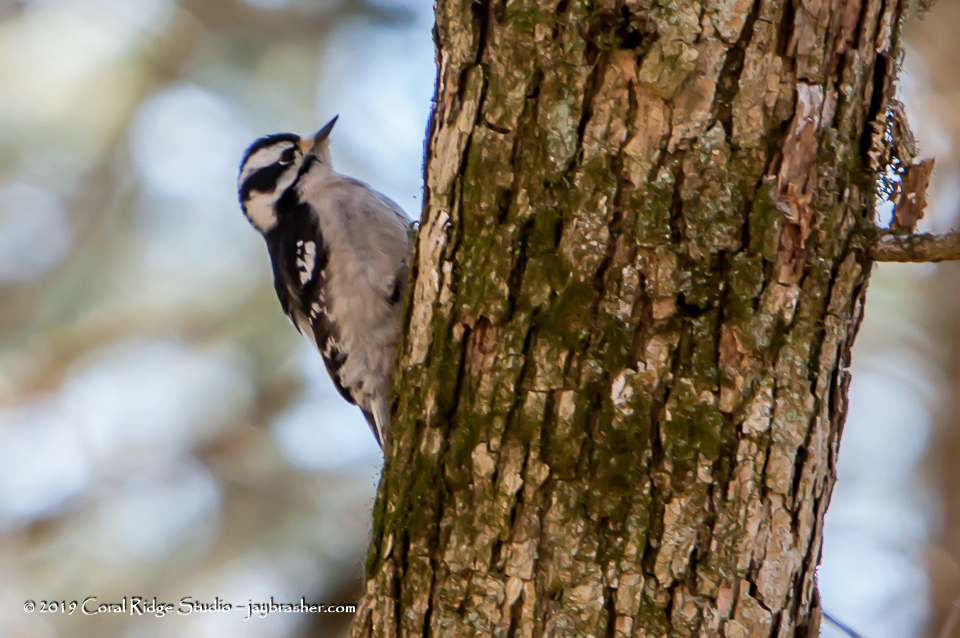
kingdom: Animalia
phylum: Chordata
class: Aves
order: Piciformes
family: Picidae
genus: Dryobates
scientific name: Dryobates pubescens
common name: Downy woodpecker
